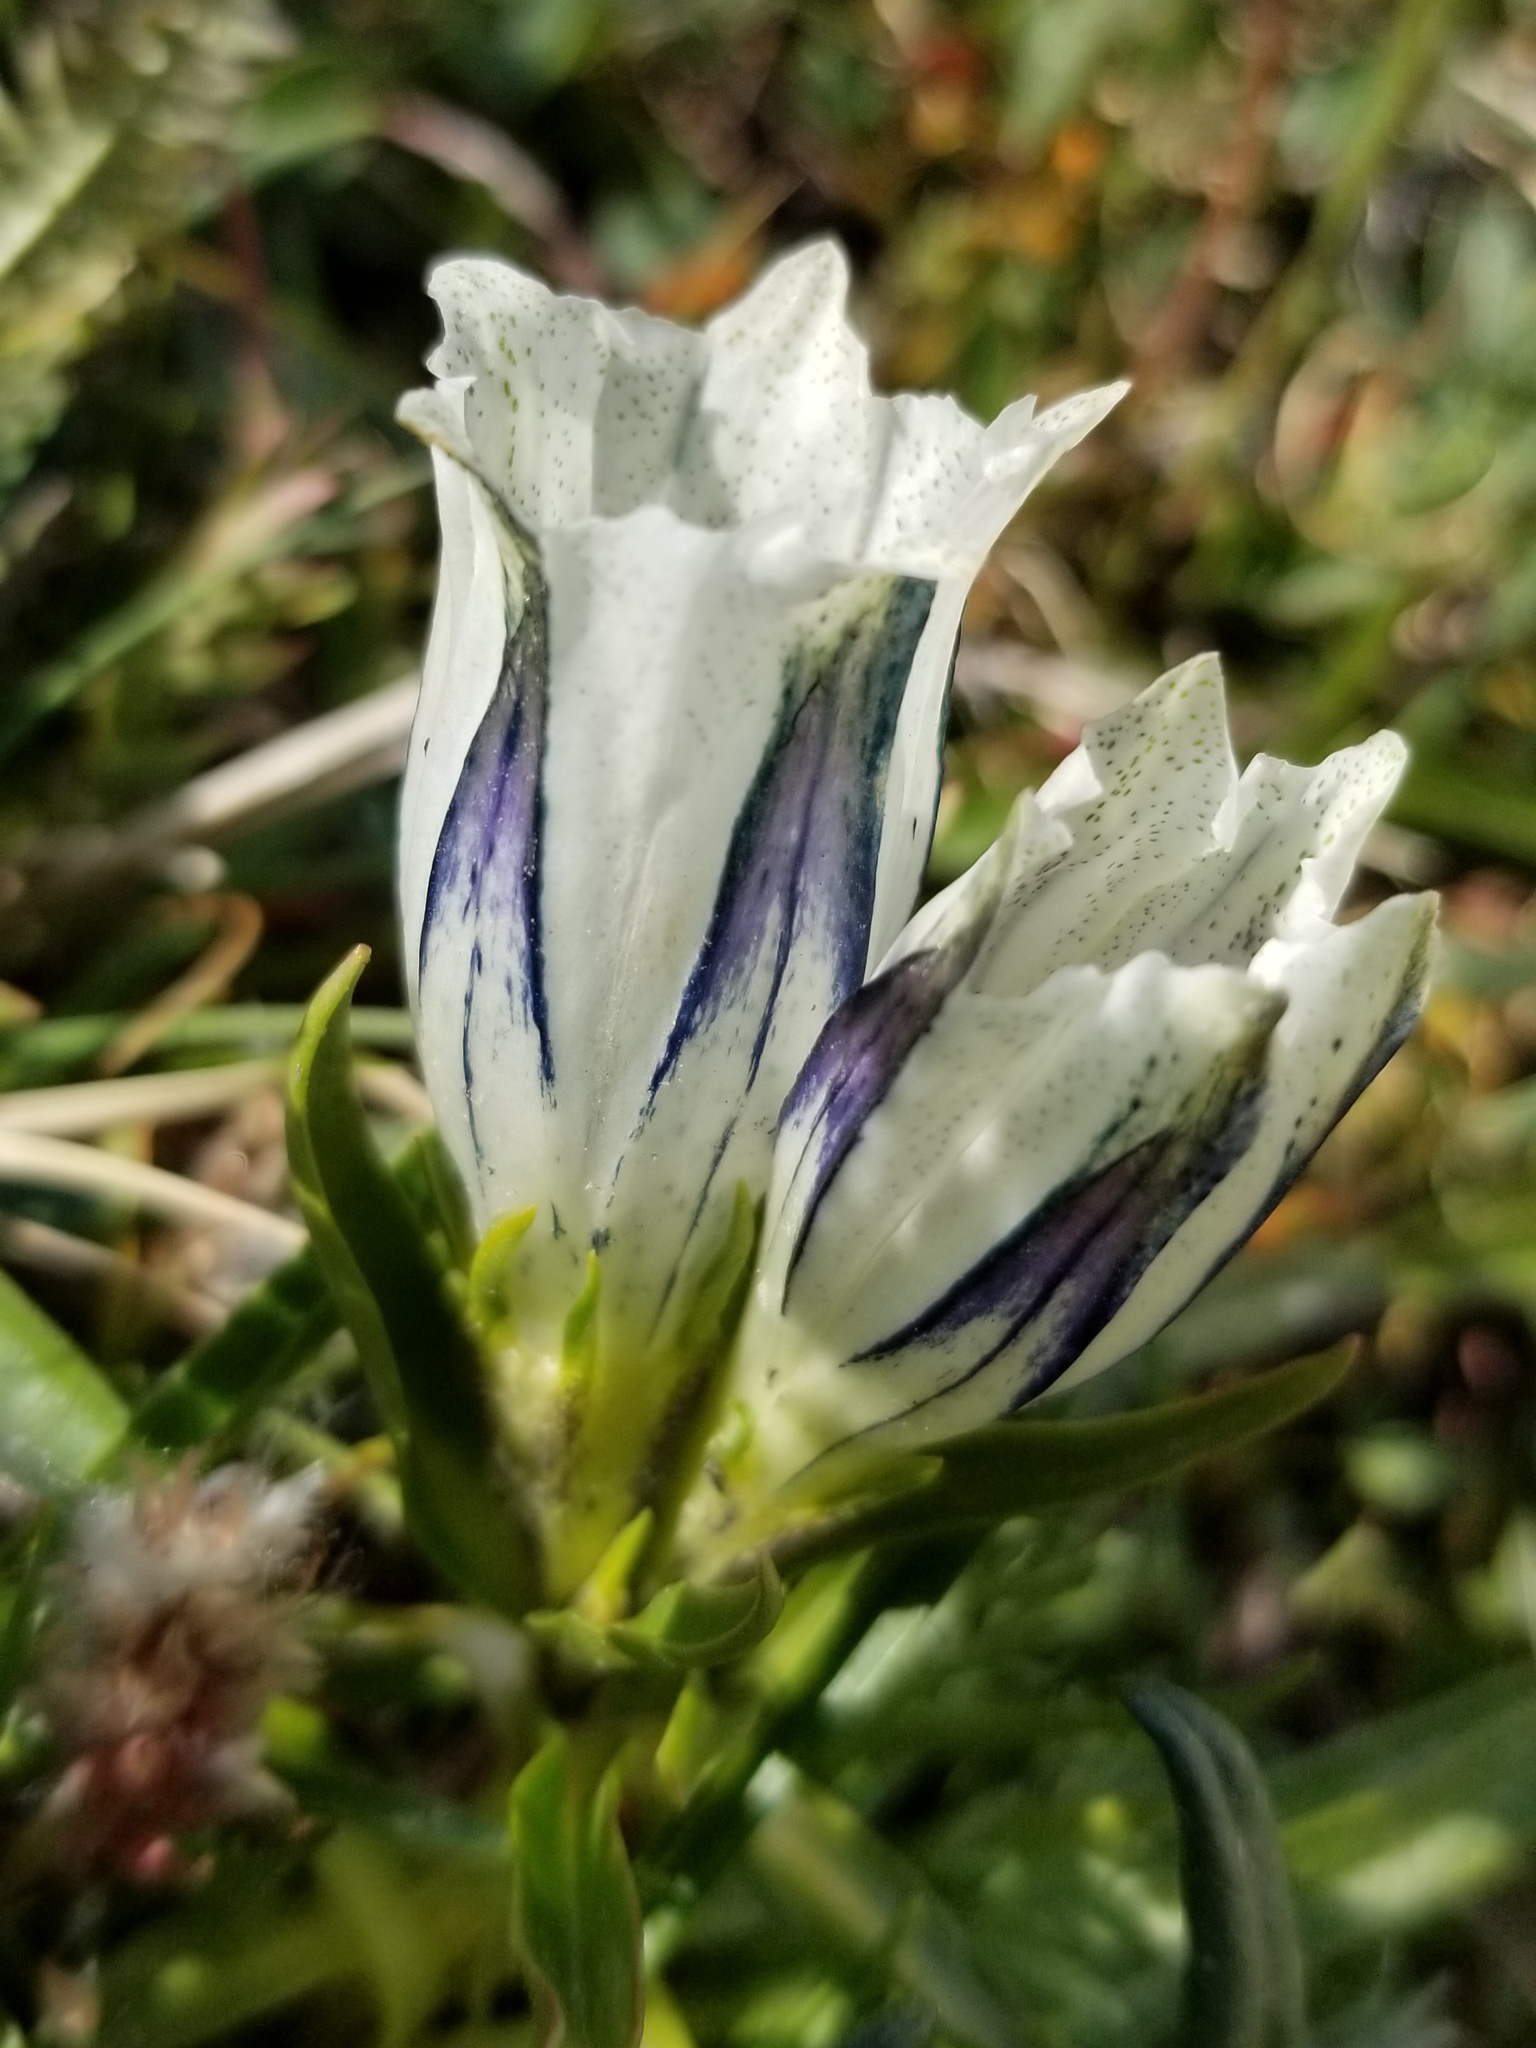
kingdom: Plantae
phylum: Tracheophyta
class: Magnoliopsida
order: Gentianales
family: Gentianaceae
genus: Gentiana
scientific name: Gentiana algida
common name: Arctic gentian
